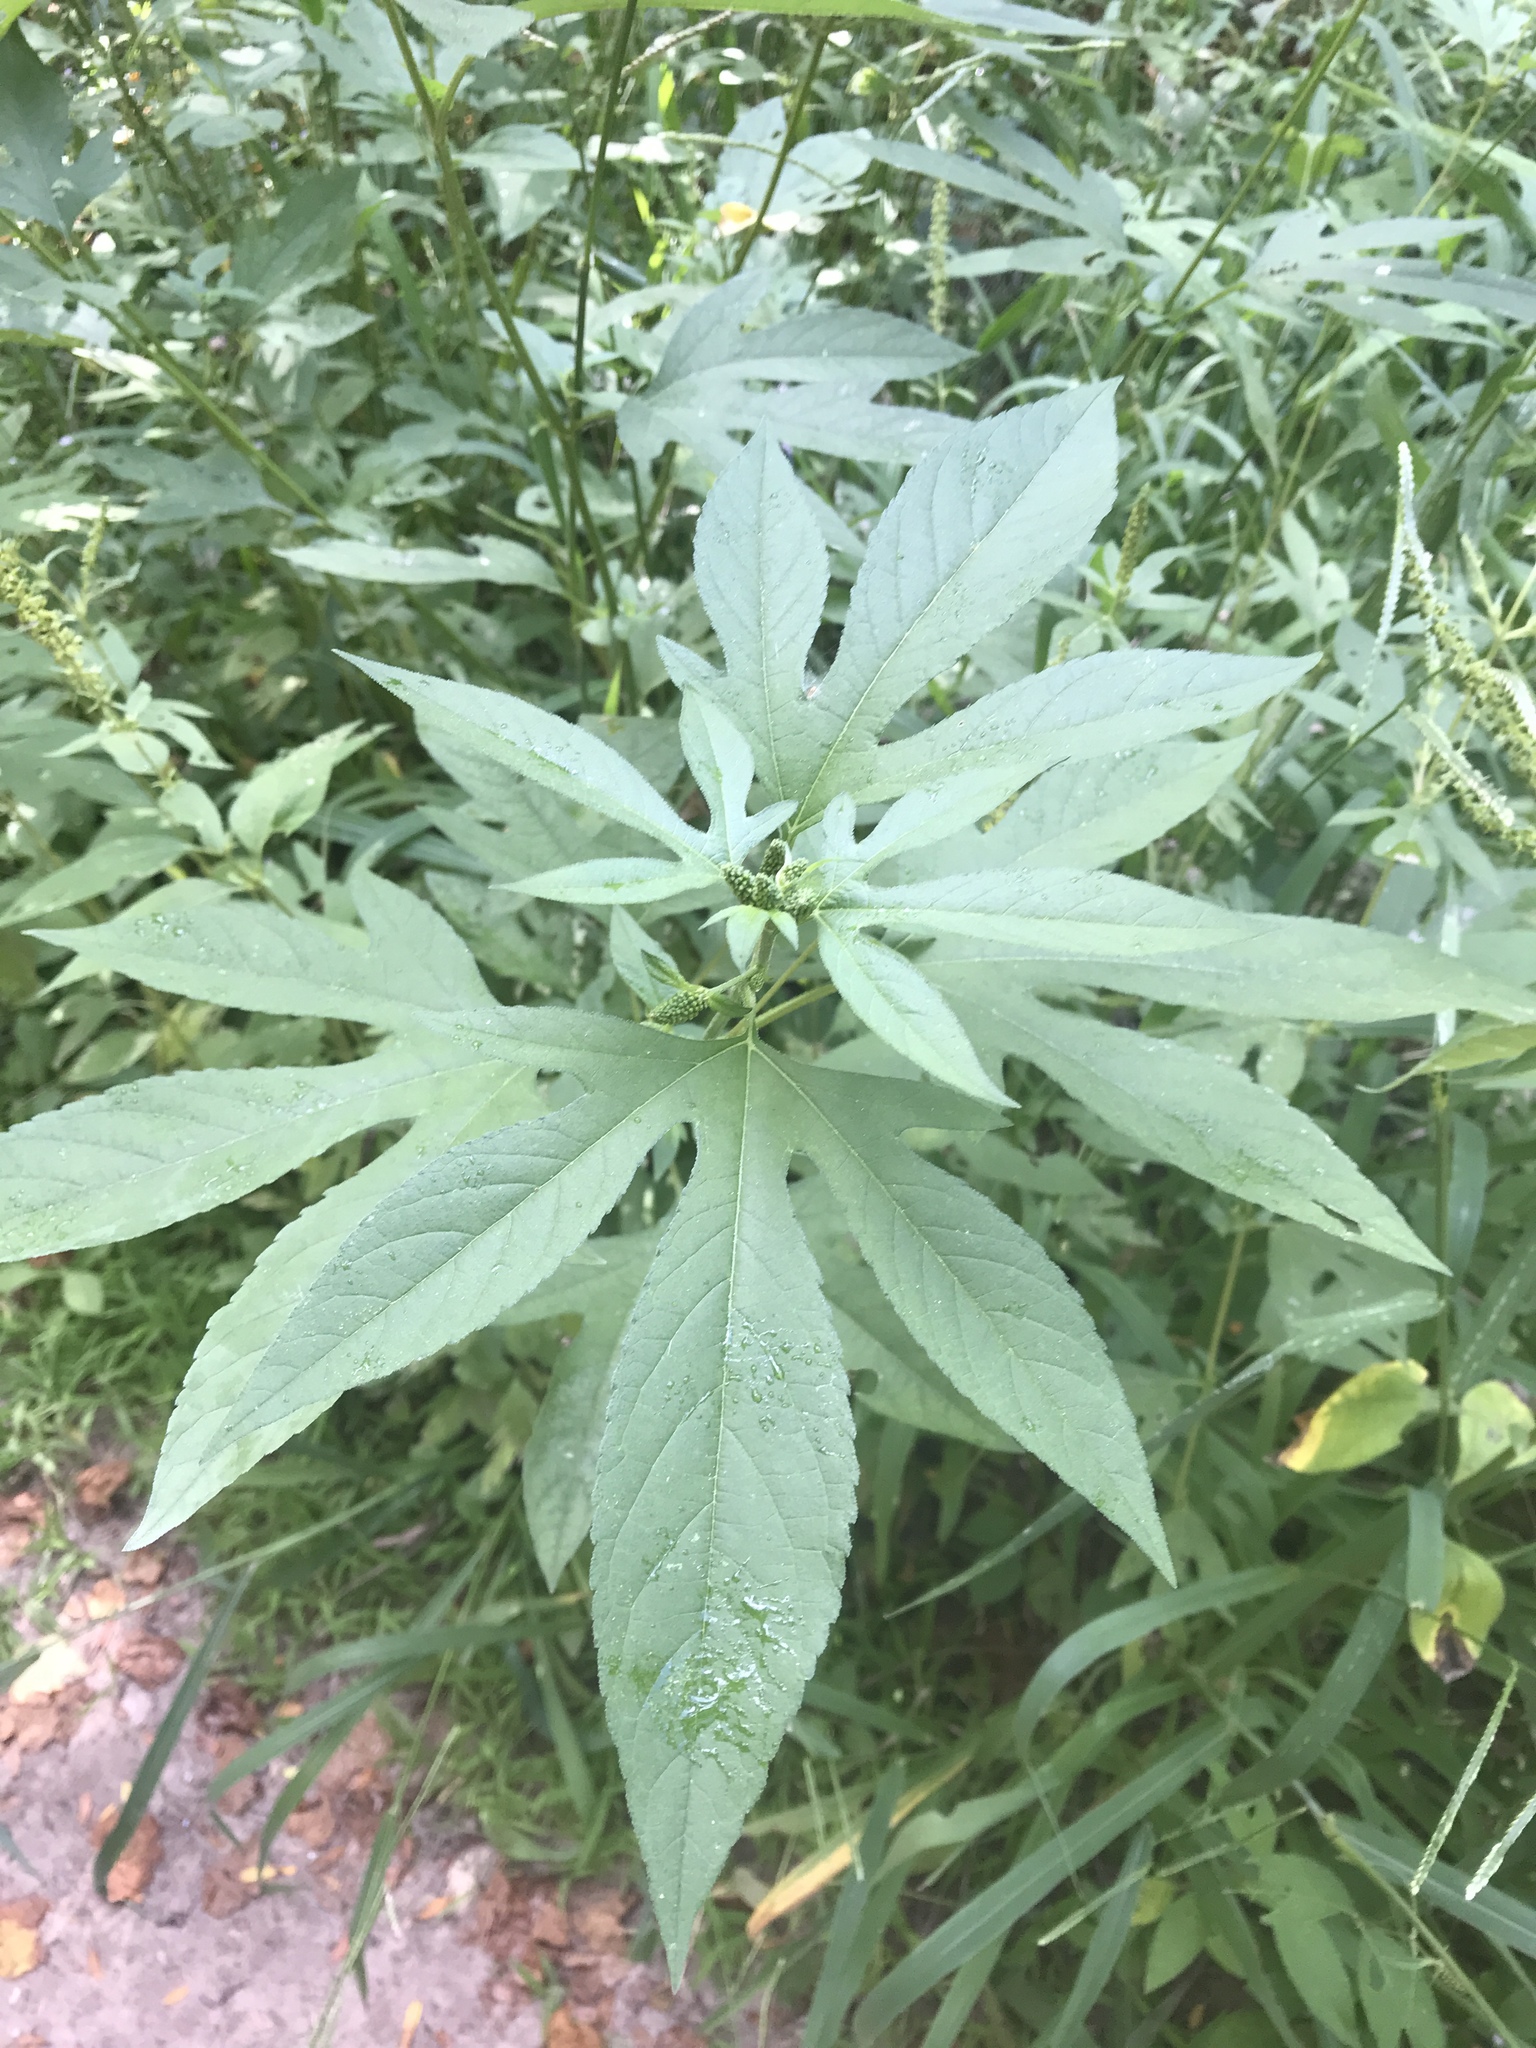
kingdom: Plantae
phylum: Tracheophyta
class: Magnoliopsida
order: Asterales
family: Asteraceae
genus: Ambrosia
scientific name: Ambrosia trifida
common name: Giant ragweed
